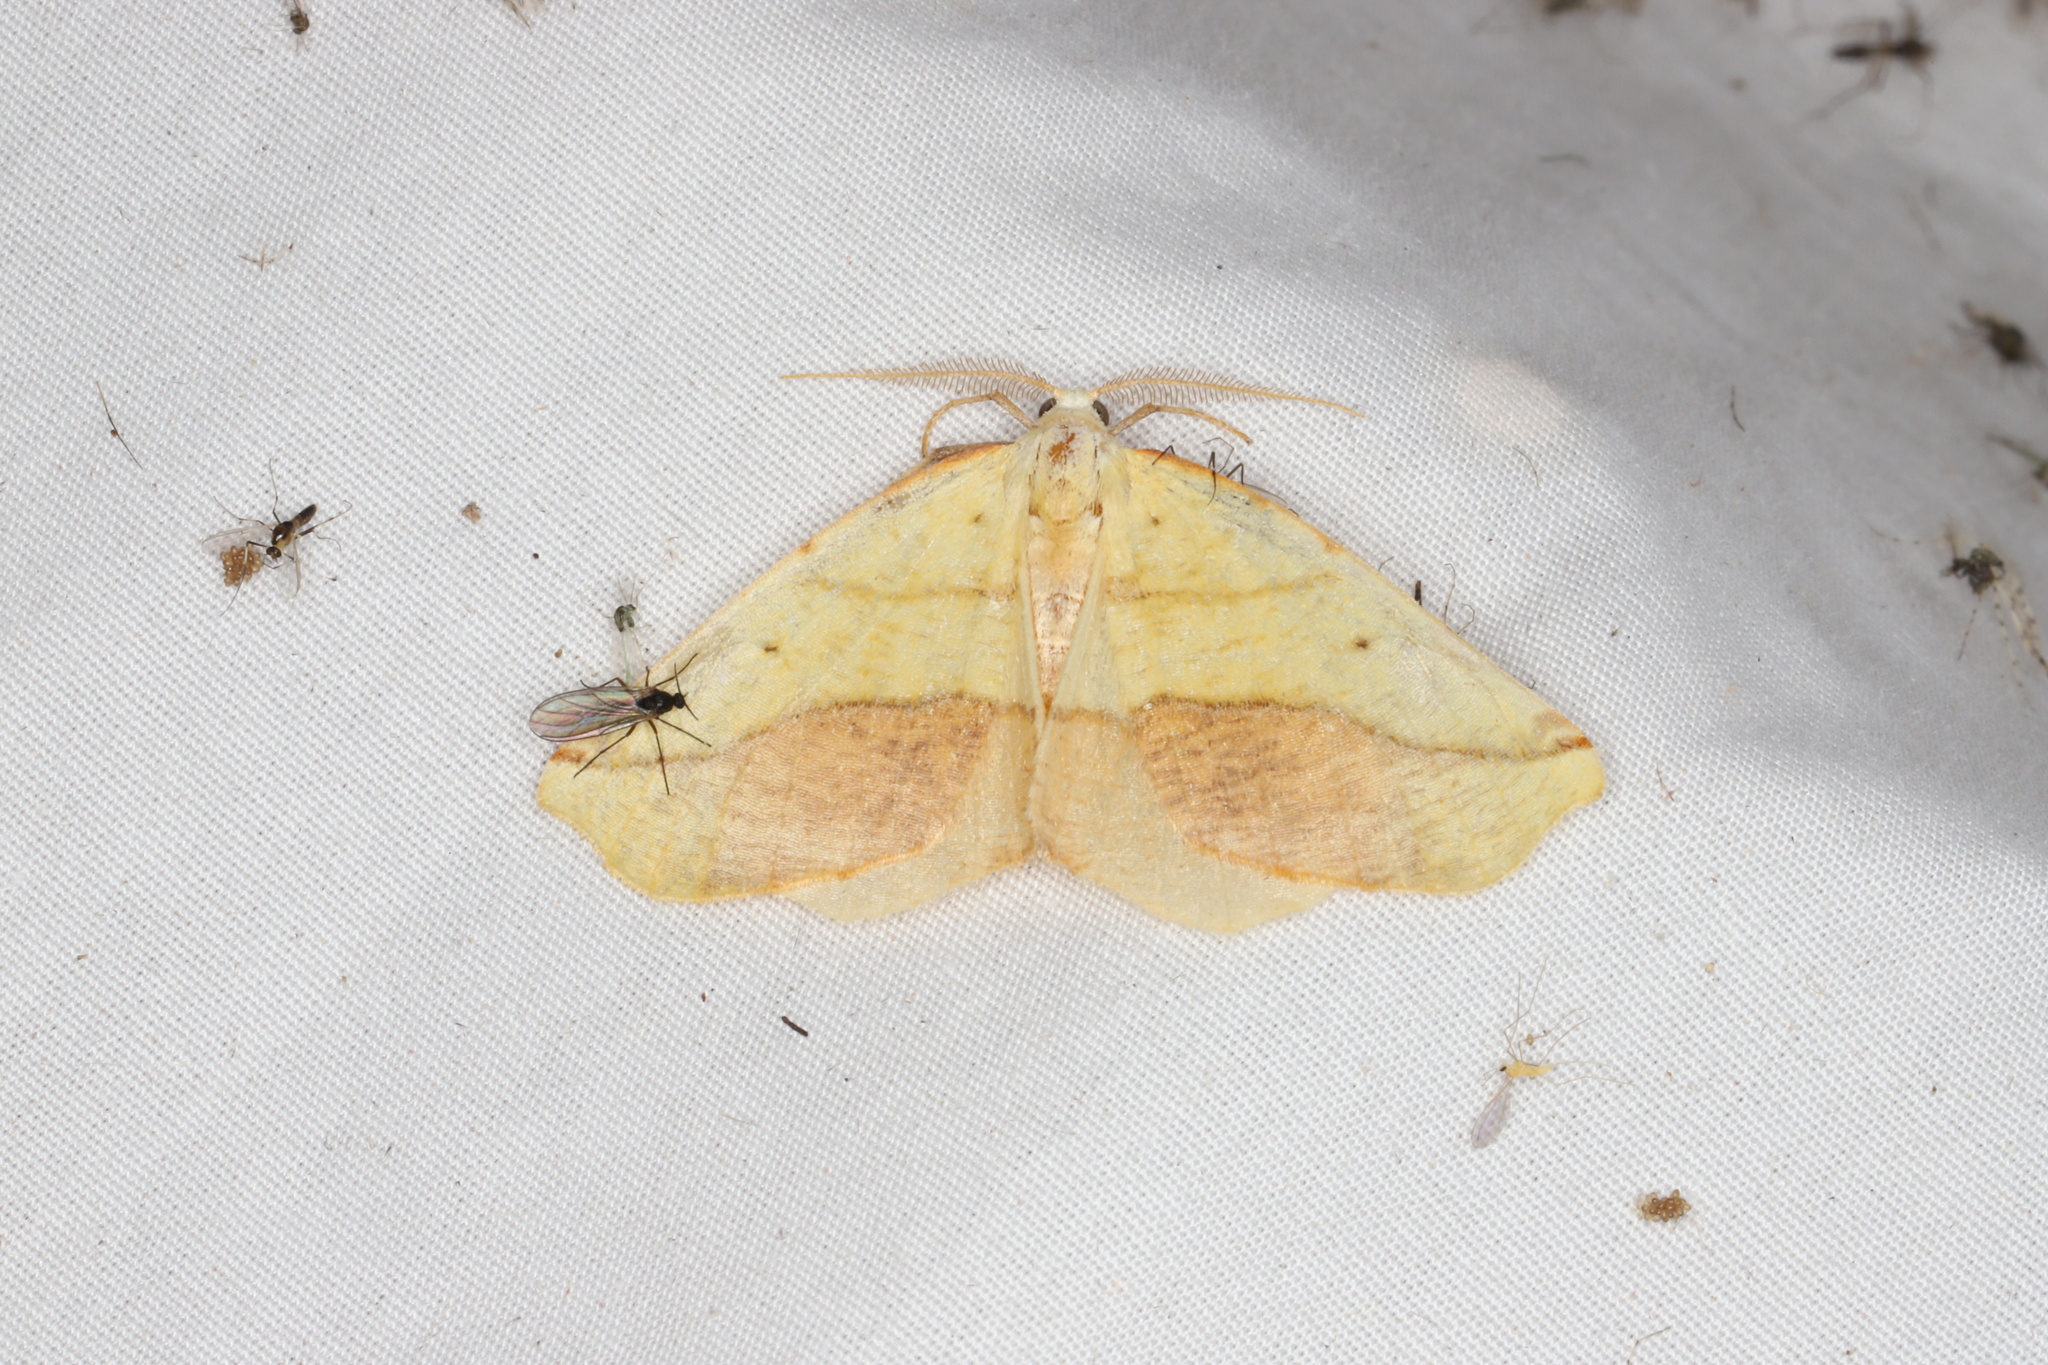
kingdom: Animalia
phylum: Arthropoda
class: Insecta
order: Lepidoptera
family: Geometridae
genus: Sicya
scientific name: Sicya macularia
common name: Sharp-lined yellow
